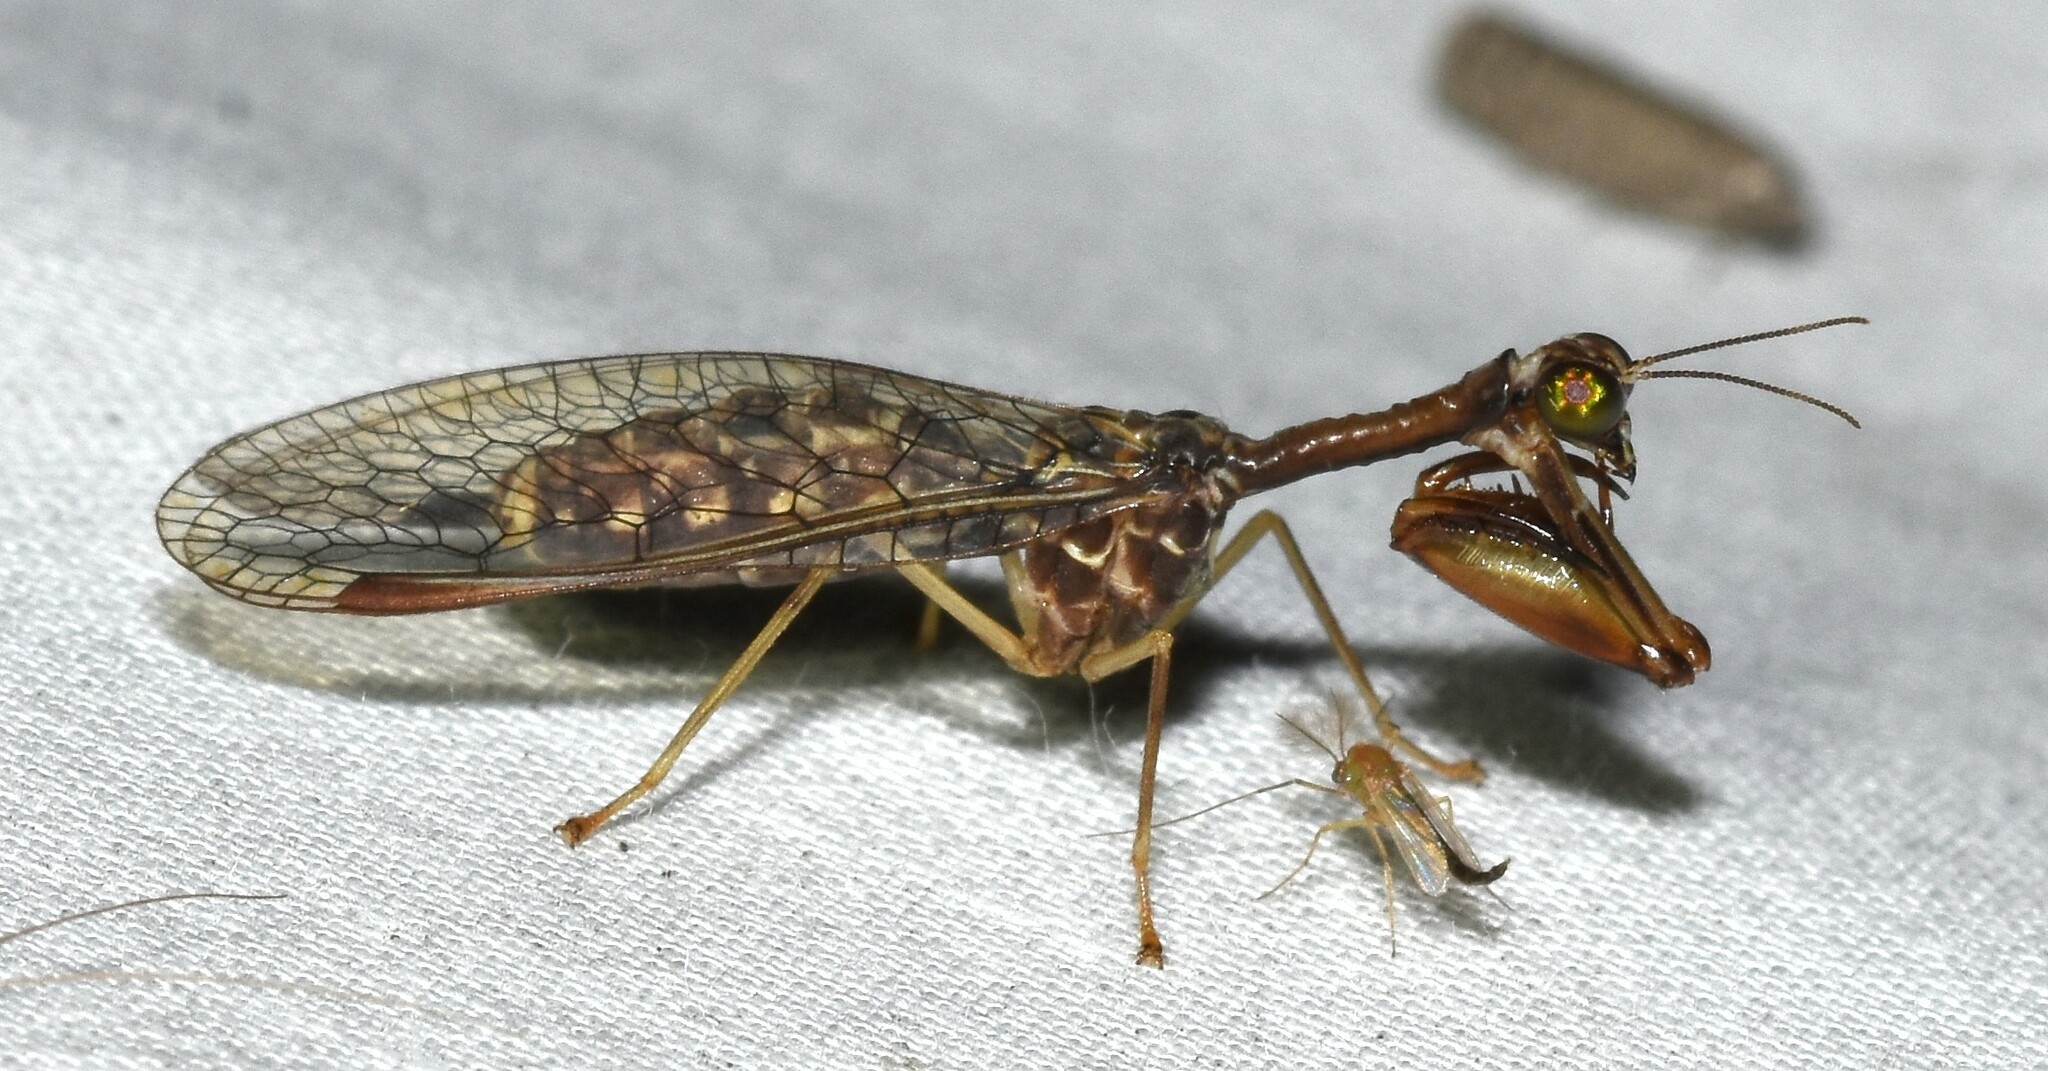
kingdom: Animalia
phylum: Arthropoda
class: Insecta
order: Neuroptera
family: Mantispidae
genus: Dicromantispa
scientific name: Dicromantispa sayi
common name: Say's mantidfly
